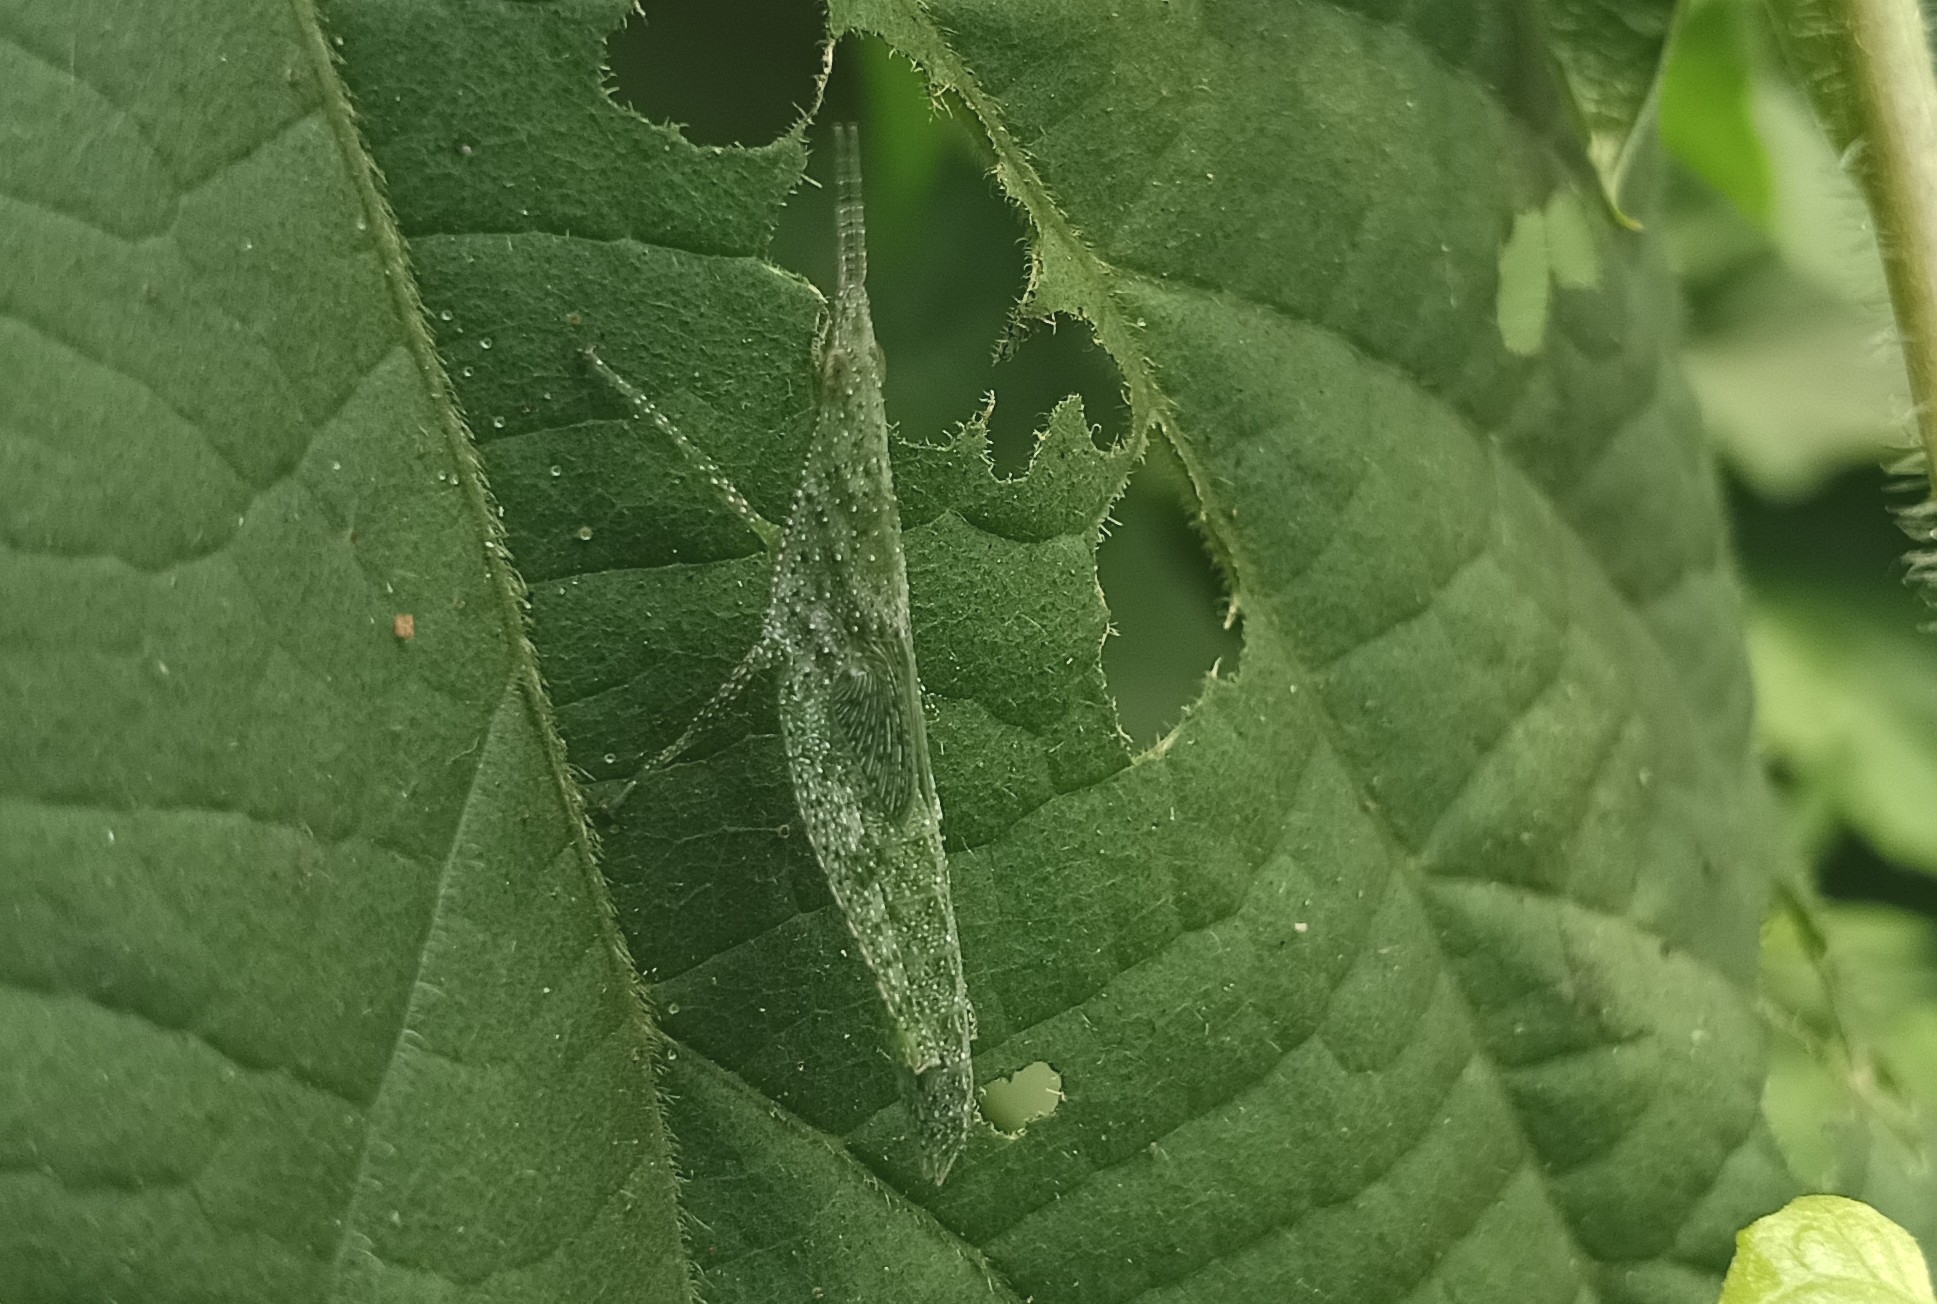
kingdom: Animalia
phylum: Arthropoda
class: Insecta
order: Orthoptera
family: Pyrgomorphidae
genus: Atractomorpha
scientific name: Atractomorpha crenulata
